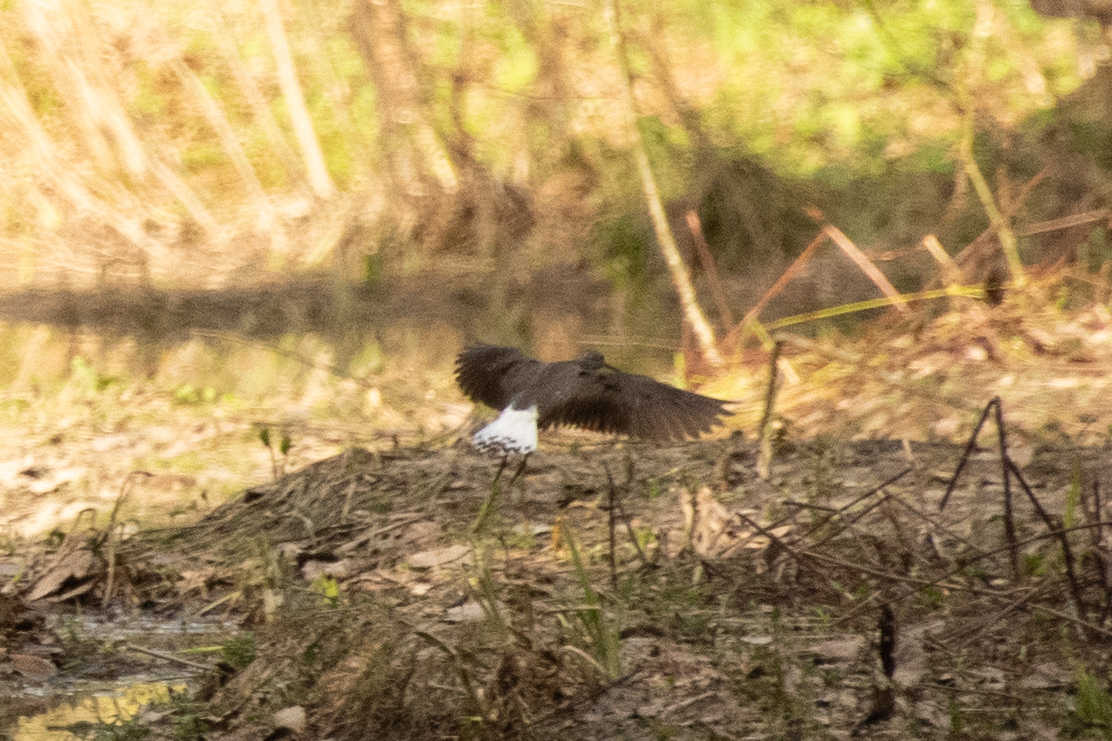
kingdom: Animalia
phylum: Chordata
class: Aves
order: Charadriiformes
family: Scolopacidae
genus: Tringa
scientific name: Tringa ochropus
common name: Green sandpiper
